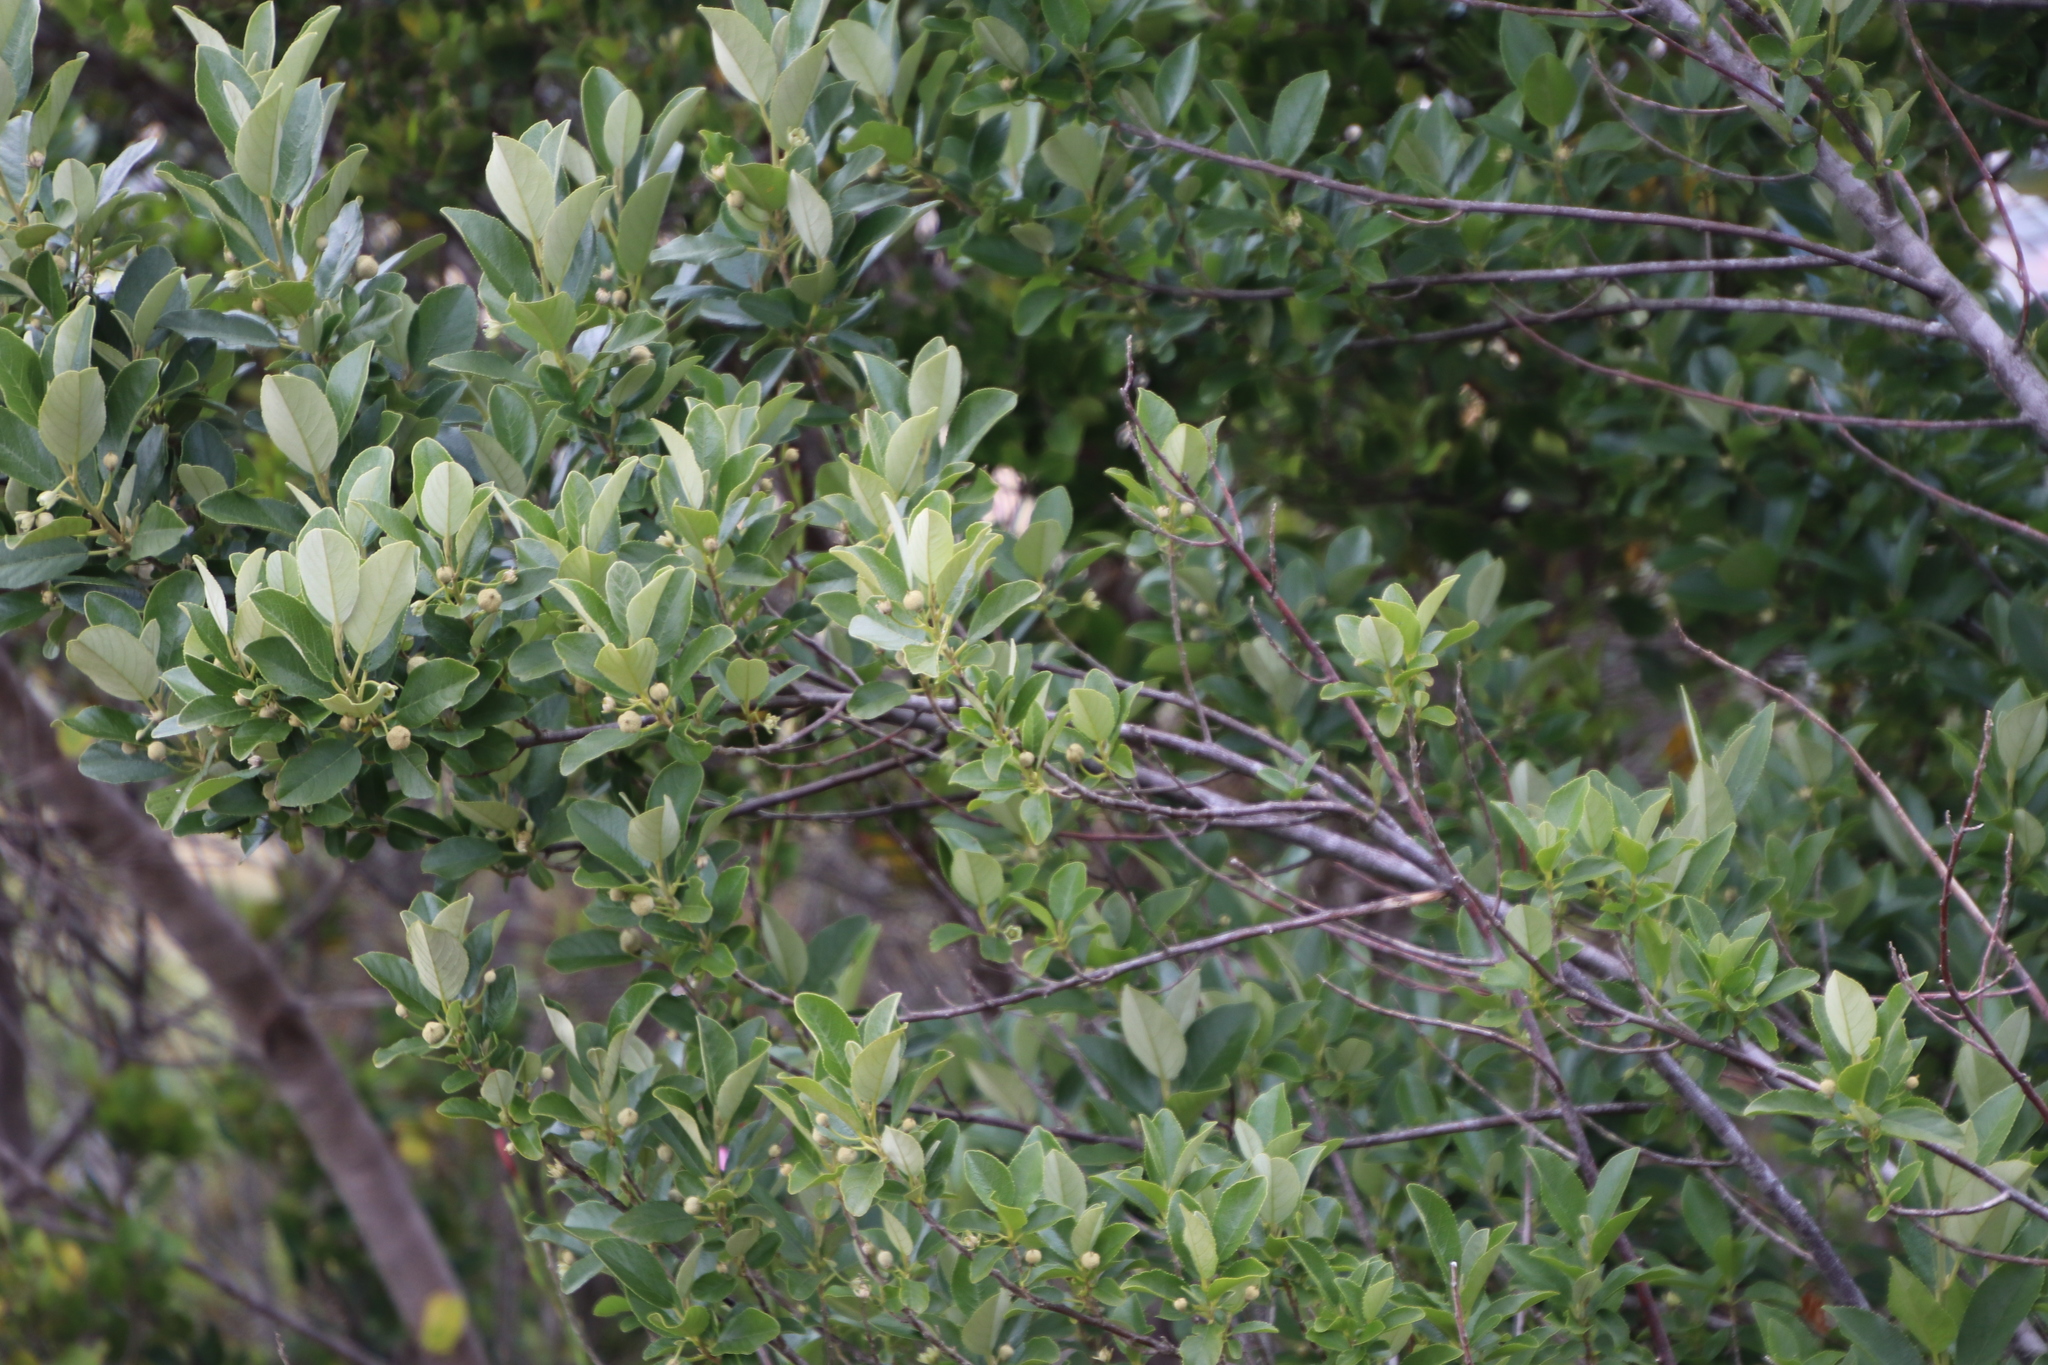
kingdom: Plantae
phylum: Tracheophyta
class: Magnoliopsida
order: Malpighiales
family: Achariaceae
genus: Kiggelaria
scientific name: Kiggelaria africana
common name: Wild peach
